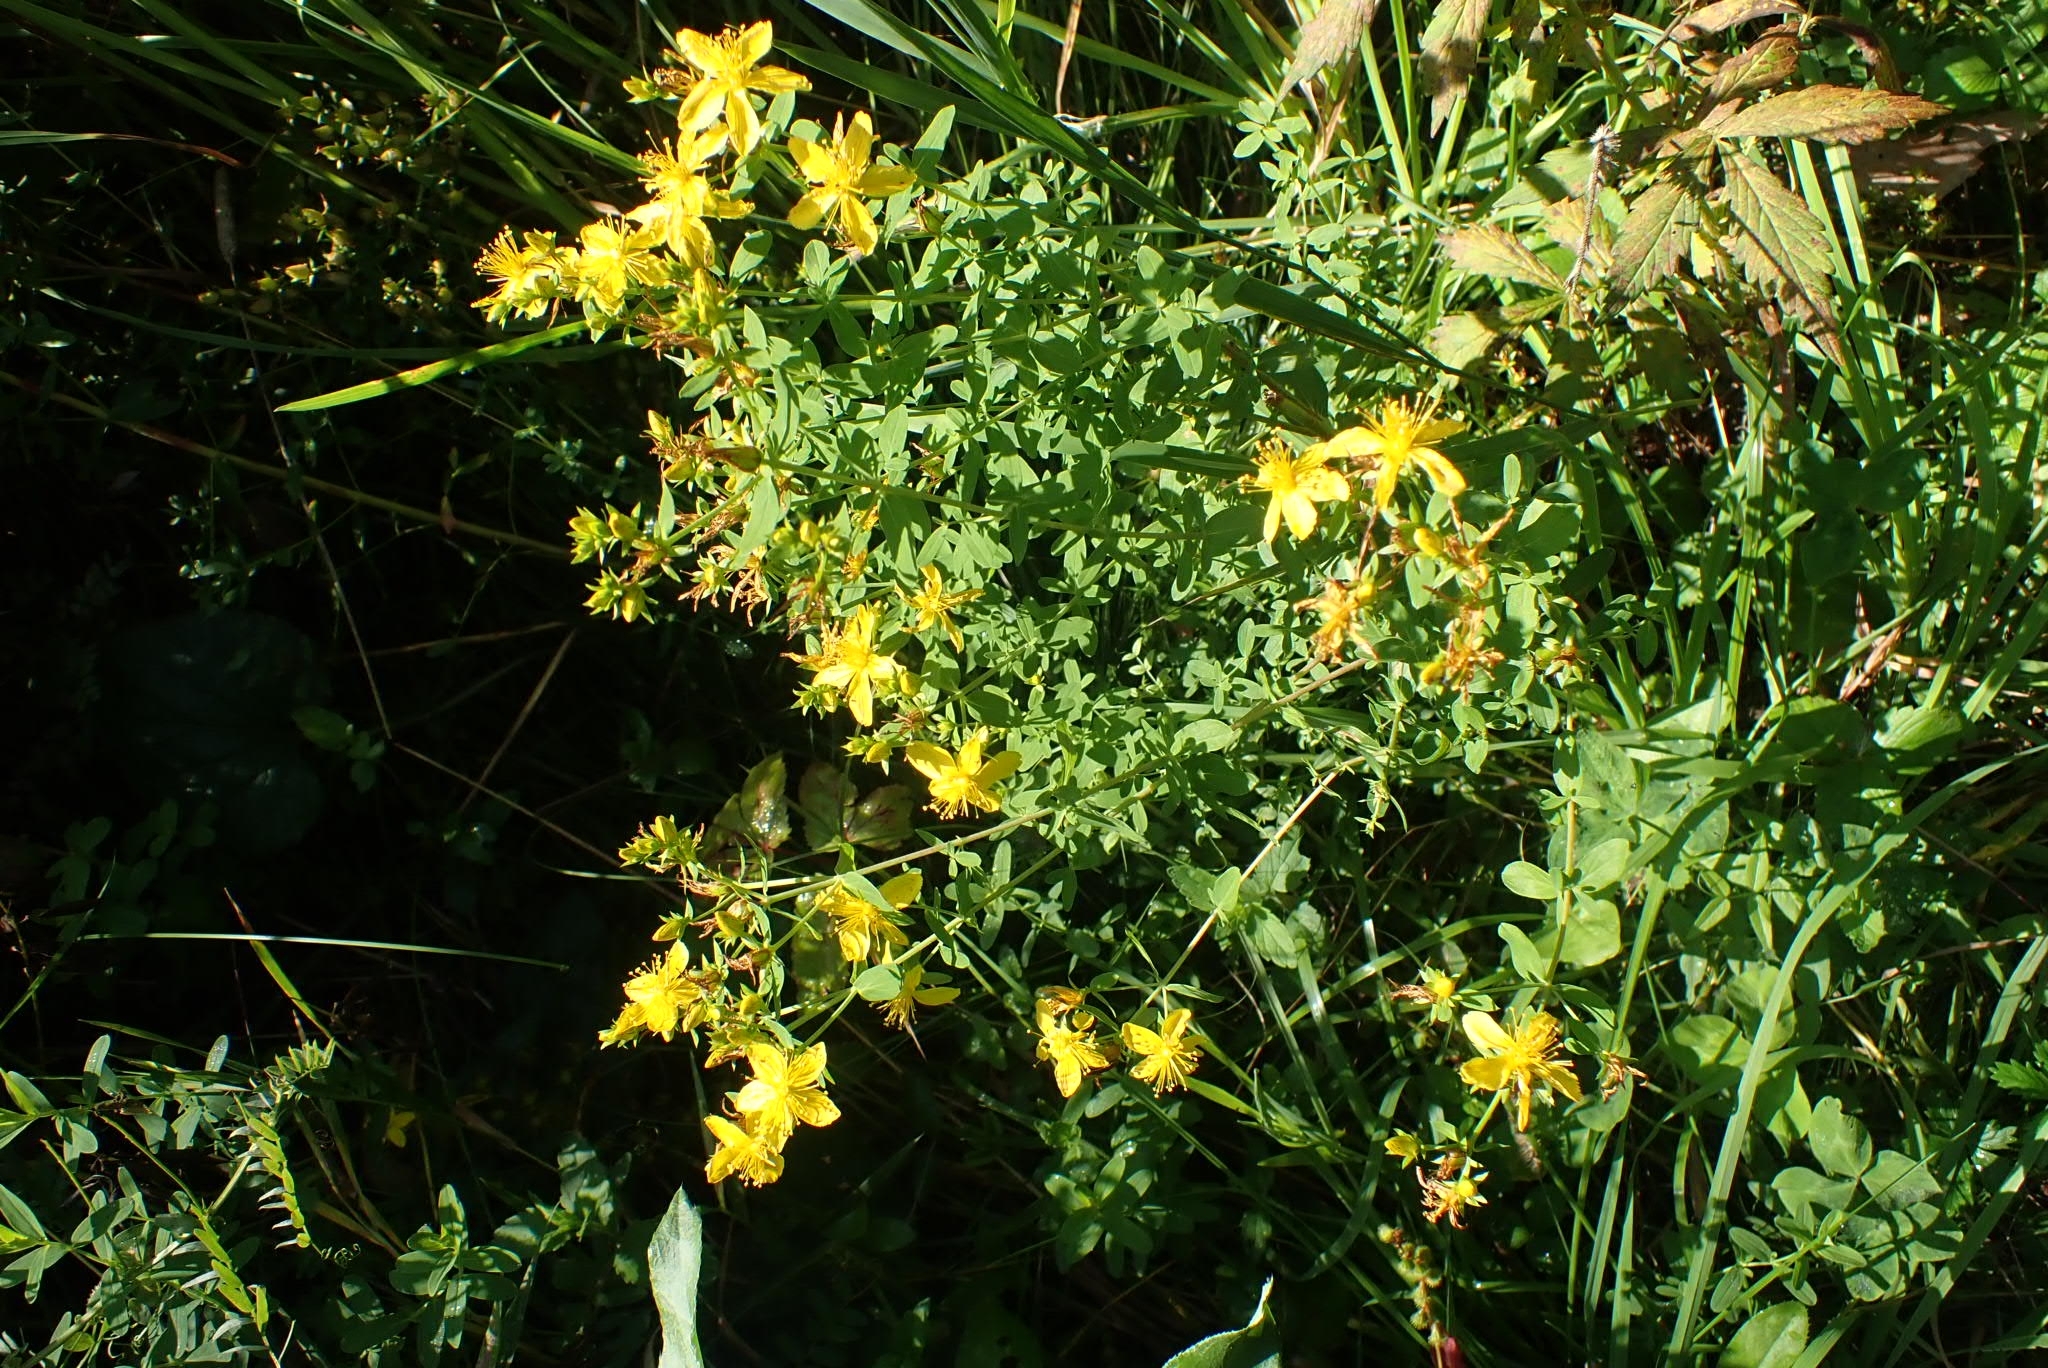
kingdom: Plantae
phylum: Tracheophyta
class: Magnoliopsida
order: Malpighiales
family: Hypericaceae
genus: Hypericum
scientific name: Hypericum perforatum
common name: Common st. johnswort
